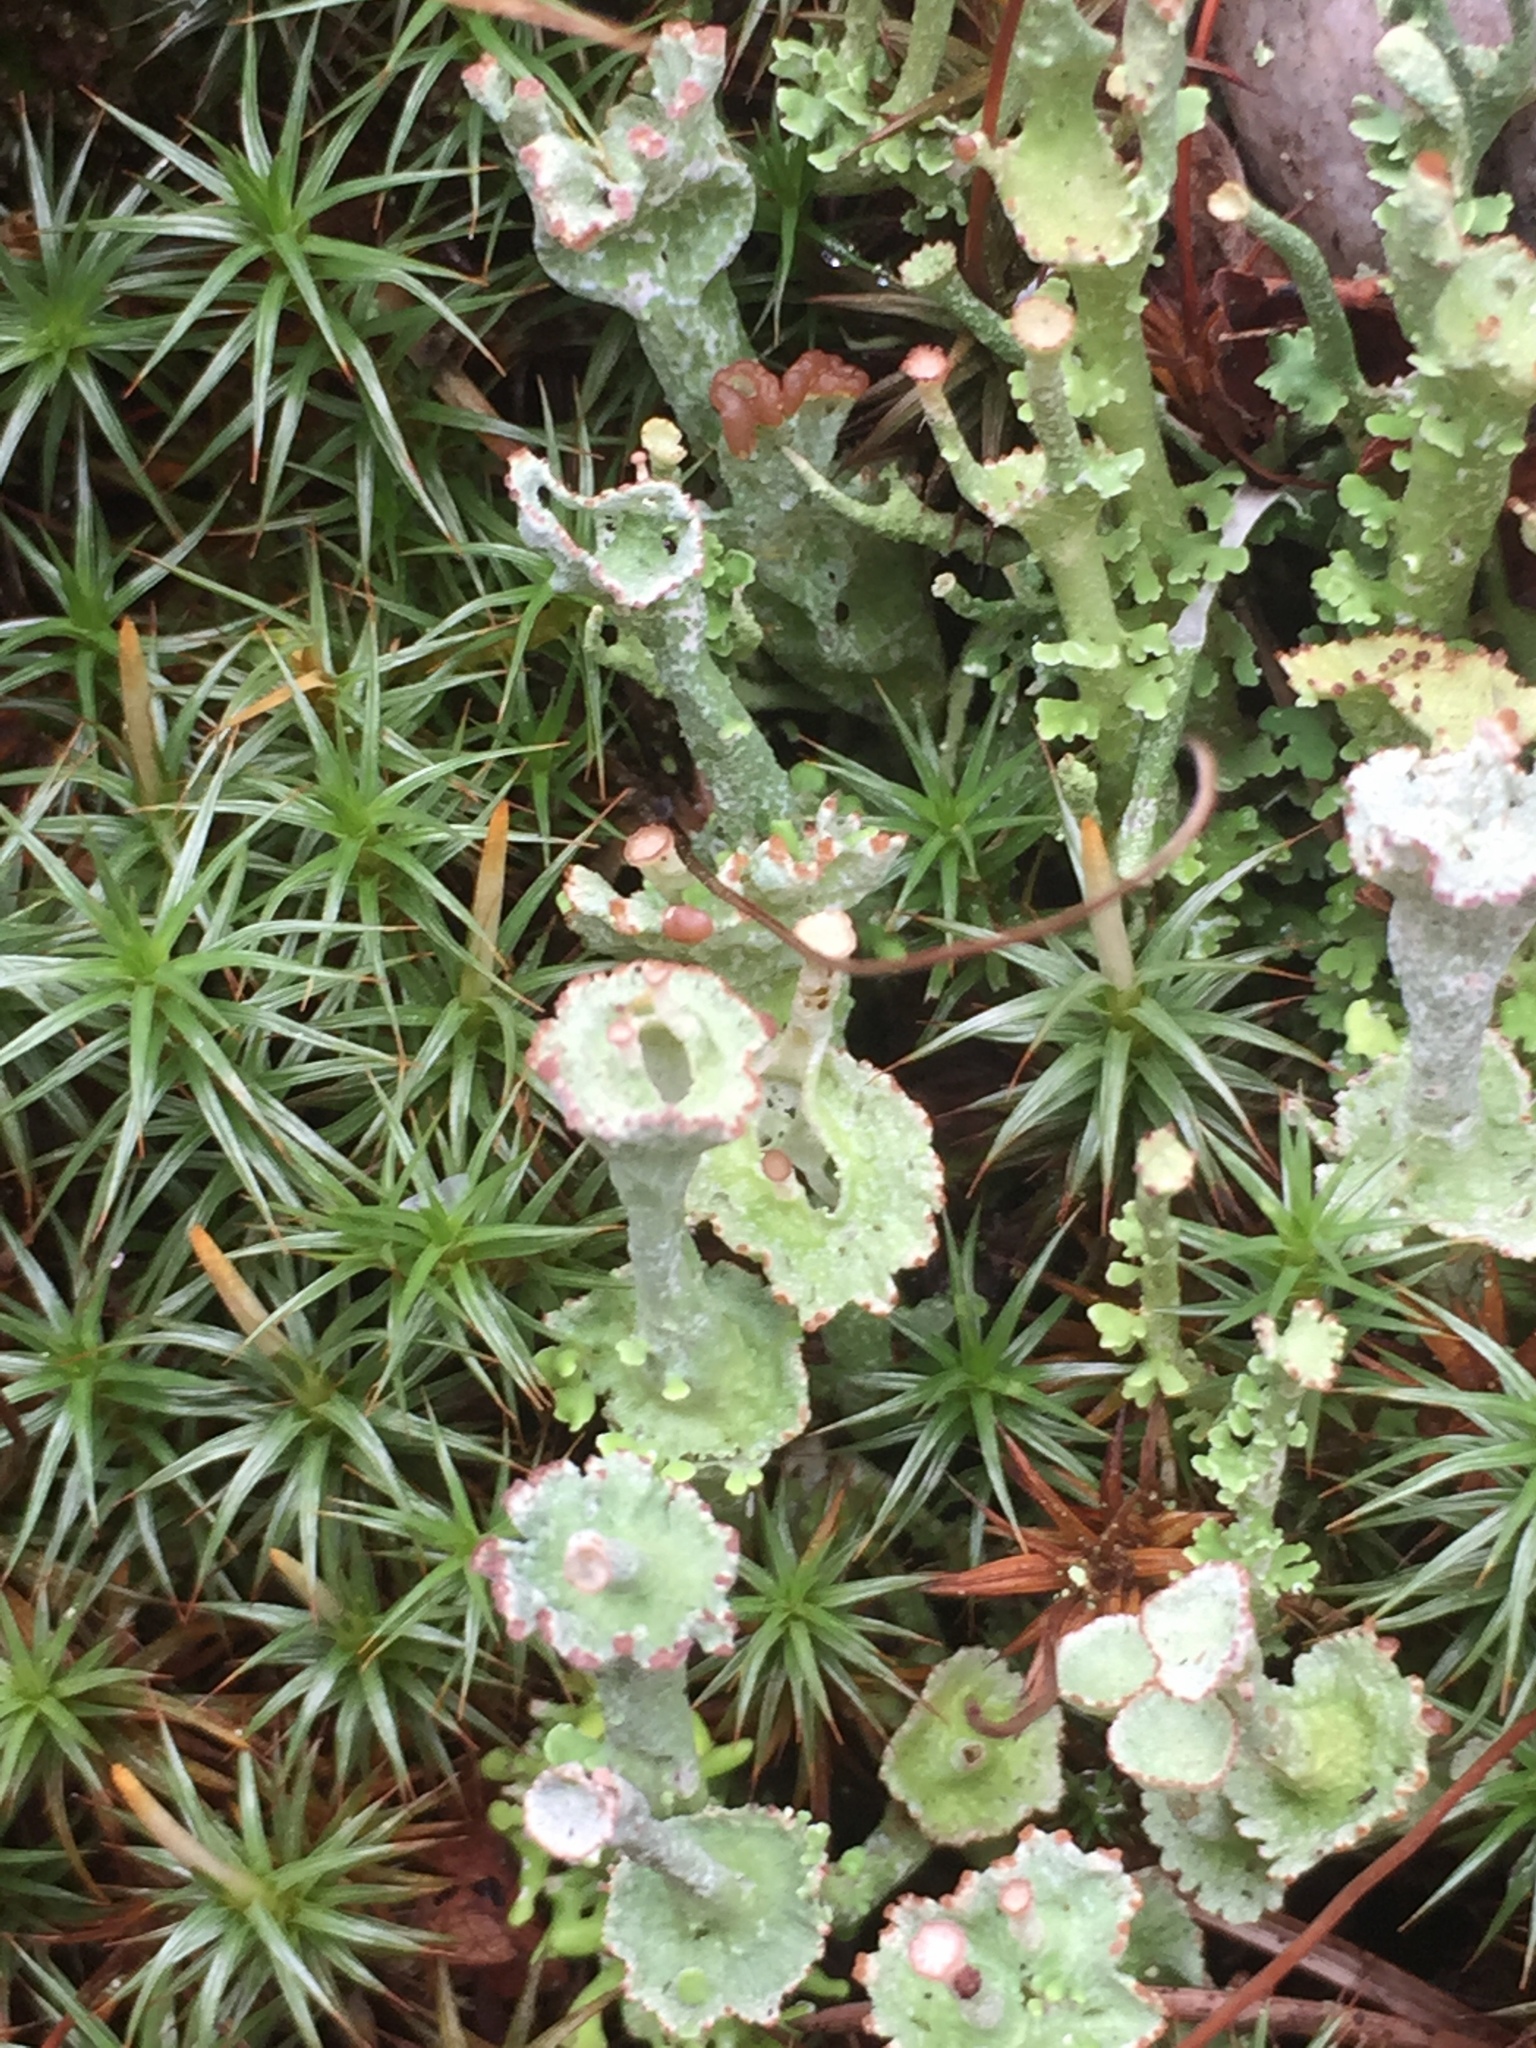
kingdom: Fungi
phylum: Ascomycota
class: Lecanoromycetes
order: Lecanorales
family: Cladoniaceae
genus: Cladonia
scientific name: Cladonia cervicornis
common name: Browned pixie-cup lichen
